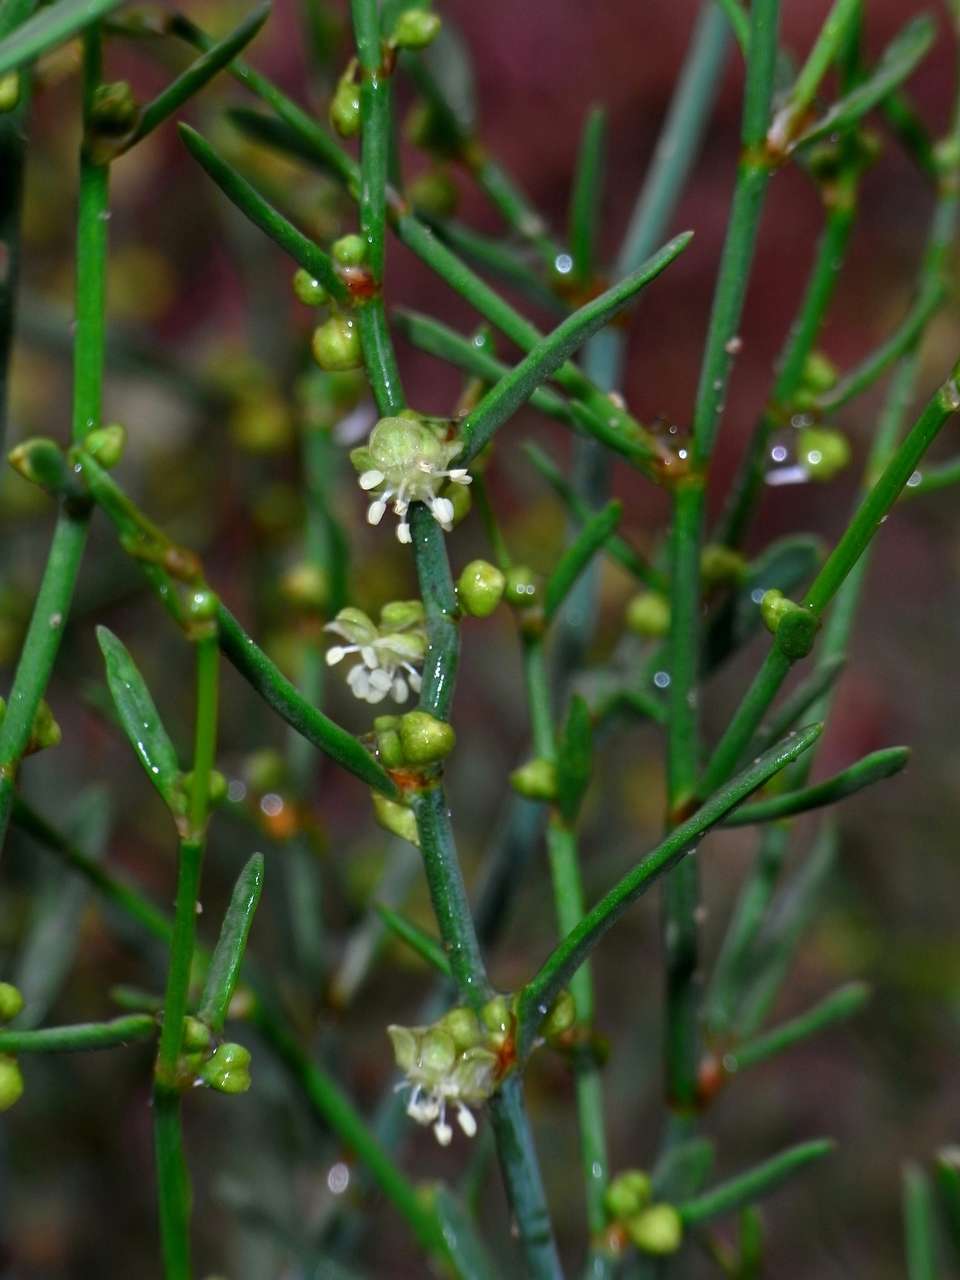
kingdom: Plantae
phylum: Tracheophyta
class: Magnoliopsida
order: Caryophyllales
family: Polygonaceae
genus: Muehlenbeckia
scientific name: Muehlenbeckia diclina
